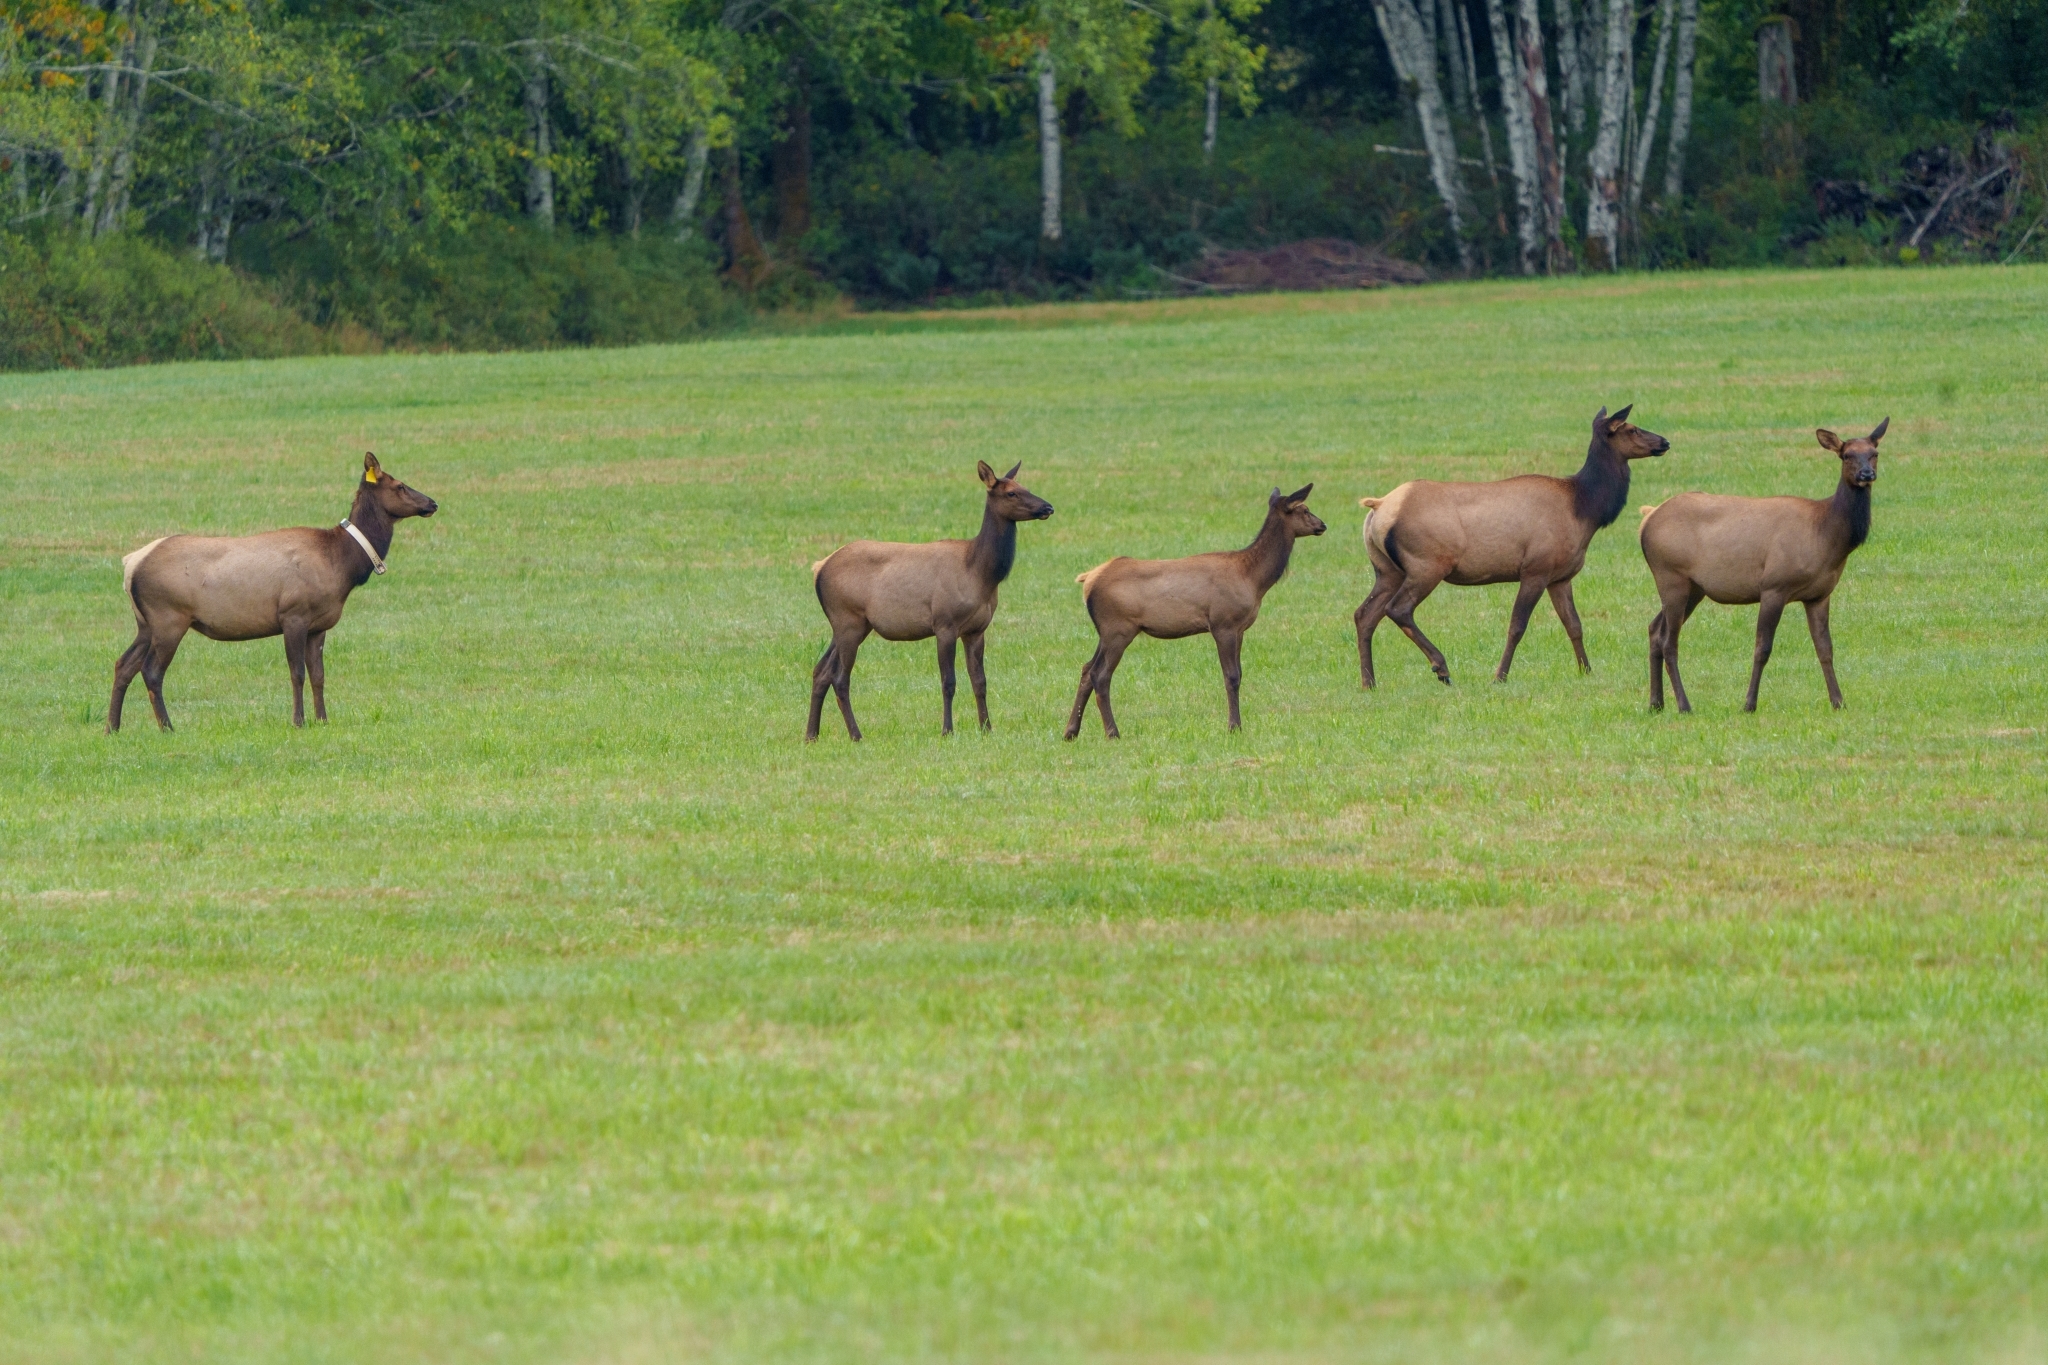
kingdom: Animalia
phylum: Chordata
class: Mammalia
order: Artiodactyla
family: Cervidae
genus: Cervus
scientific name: Cervus elaphus
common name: Red deer
